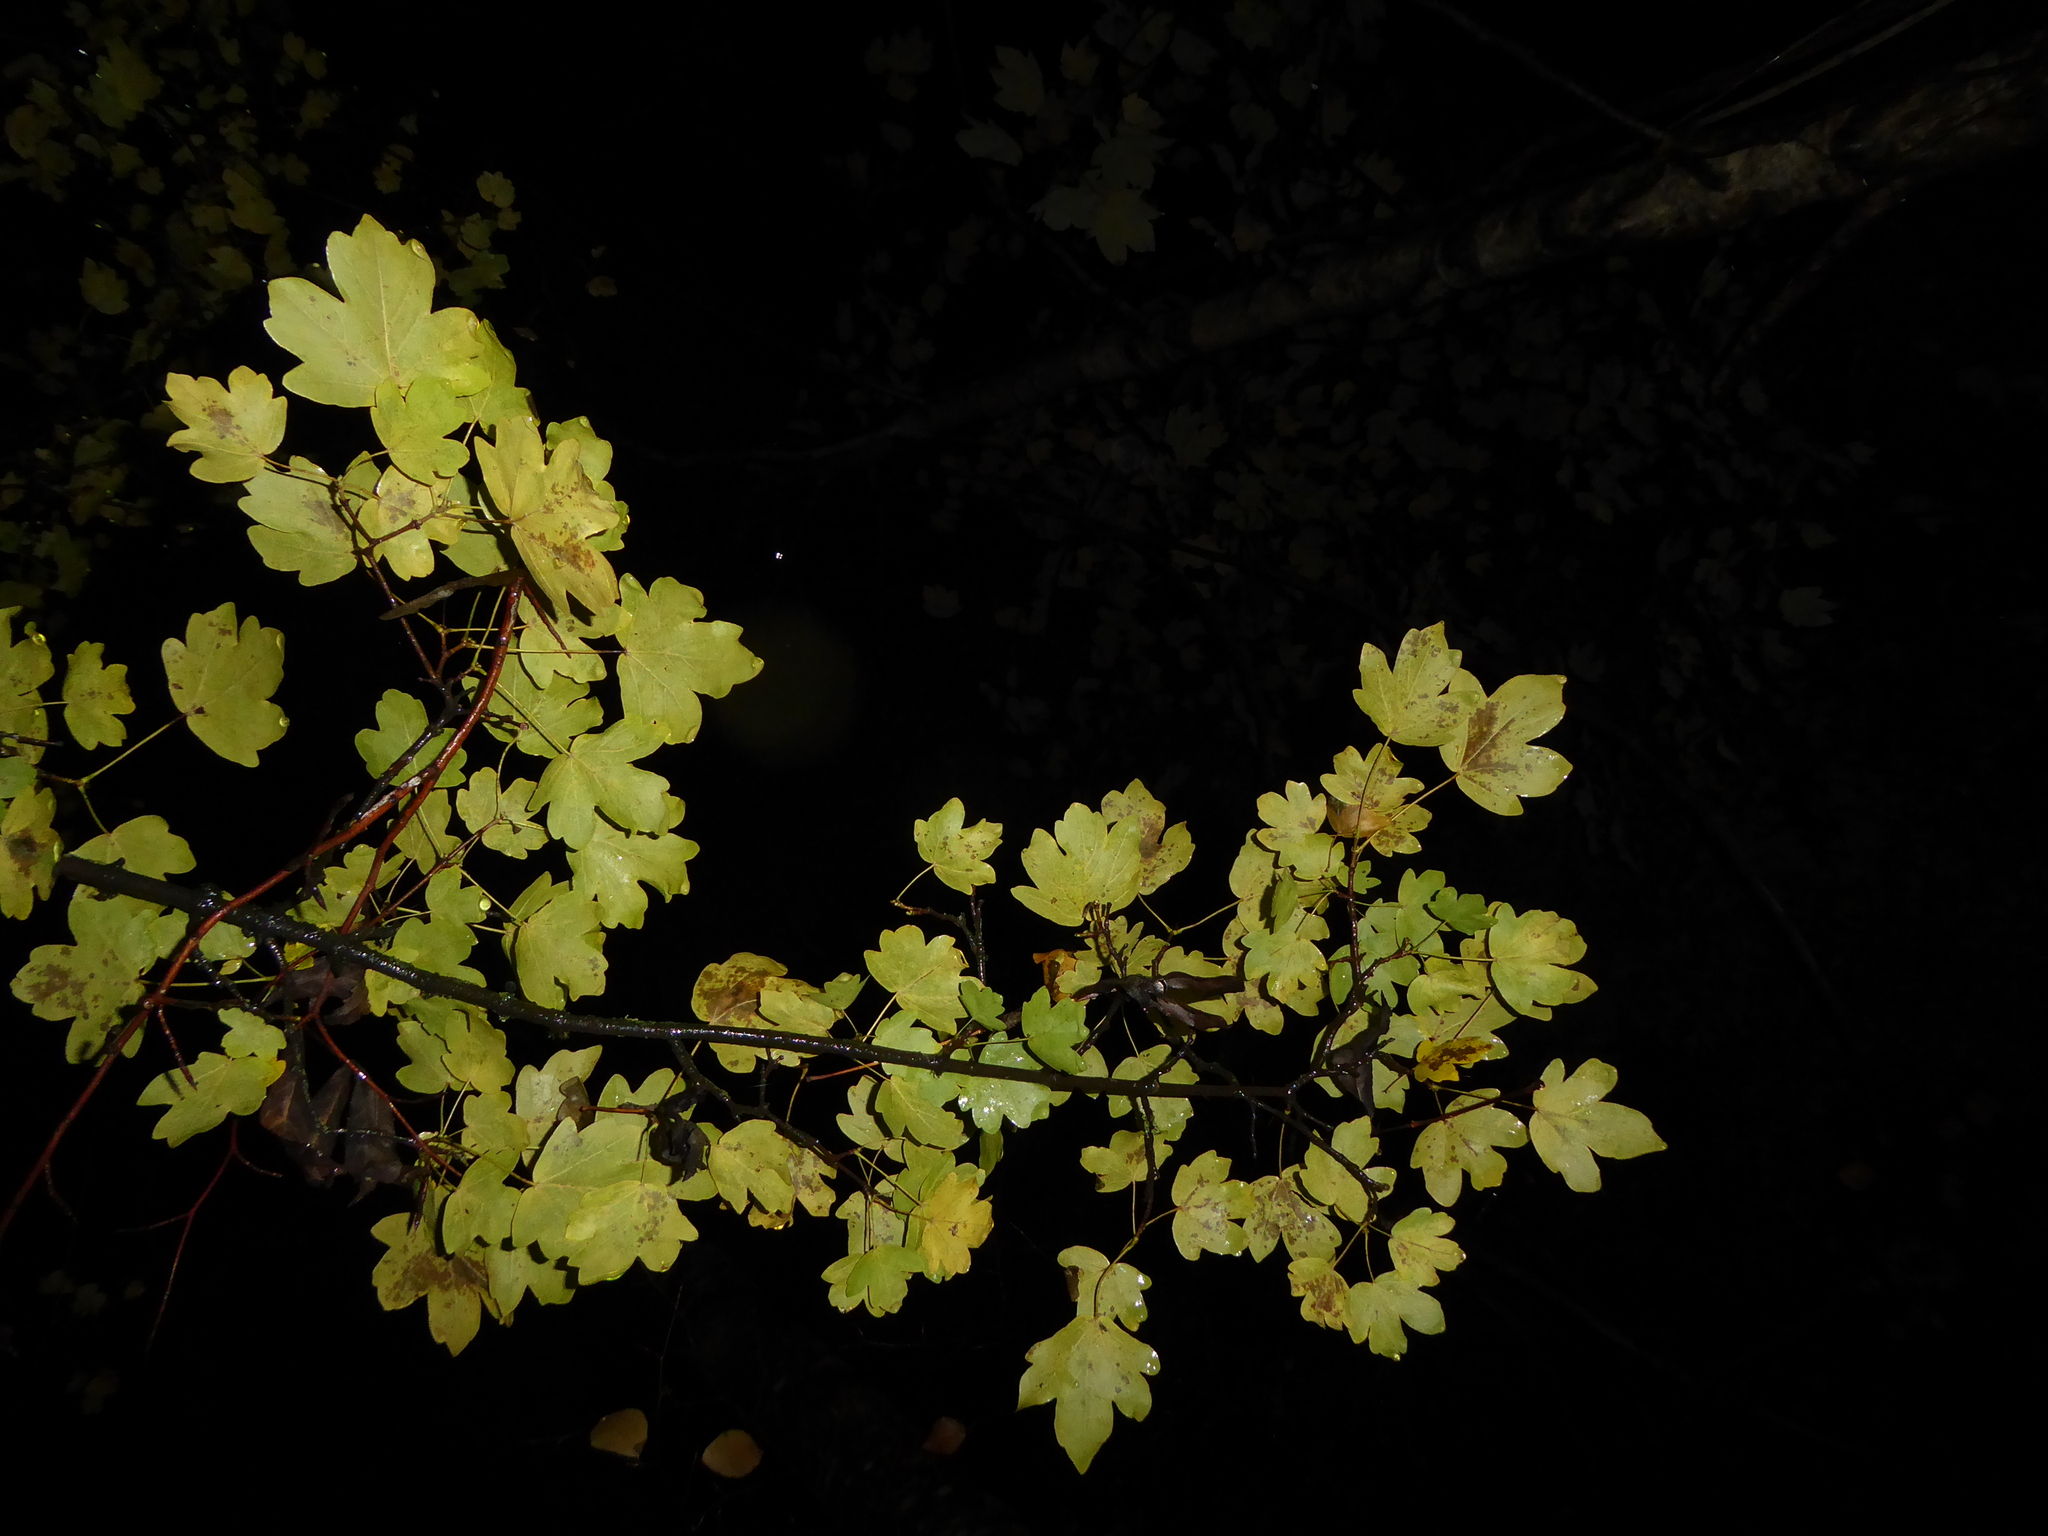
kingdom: Plantae
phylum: Tracheophyta
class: Magnoliopsida
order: Sapindales
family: Sapindaceae
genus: Acer
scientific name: Acer campestre
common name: Field maple
